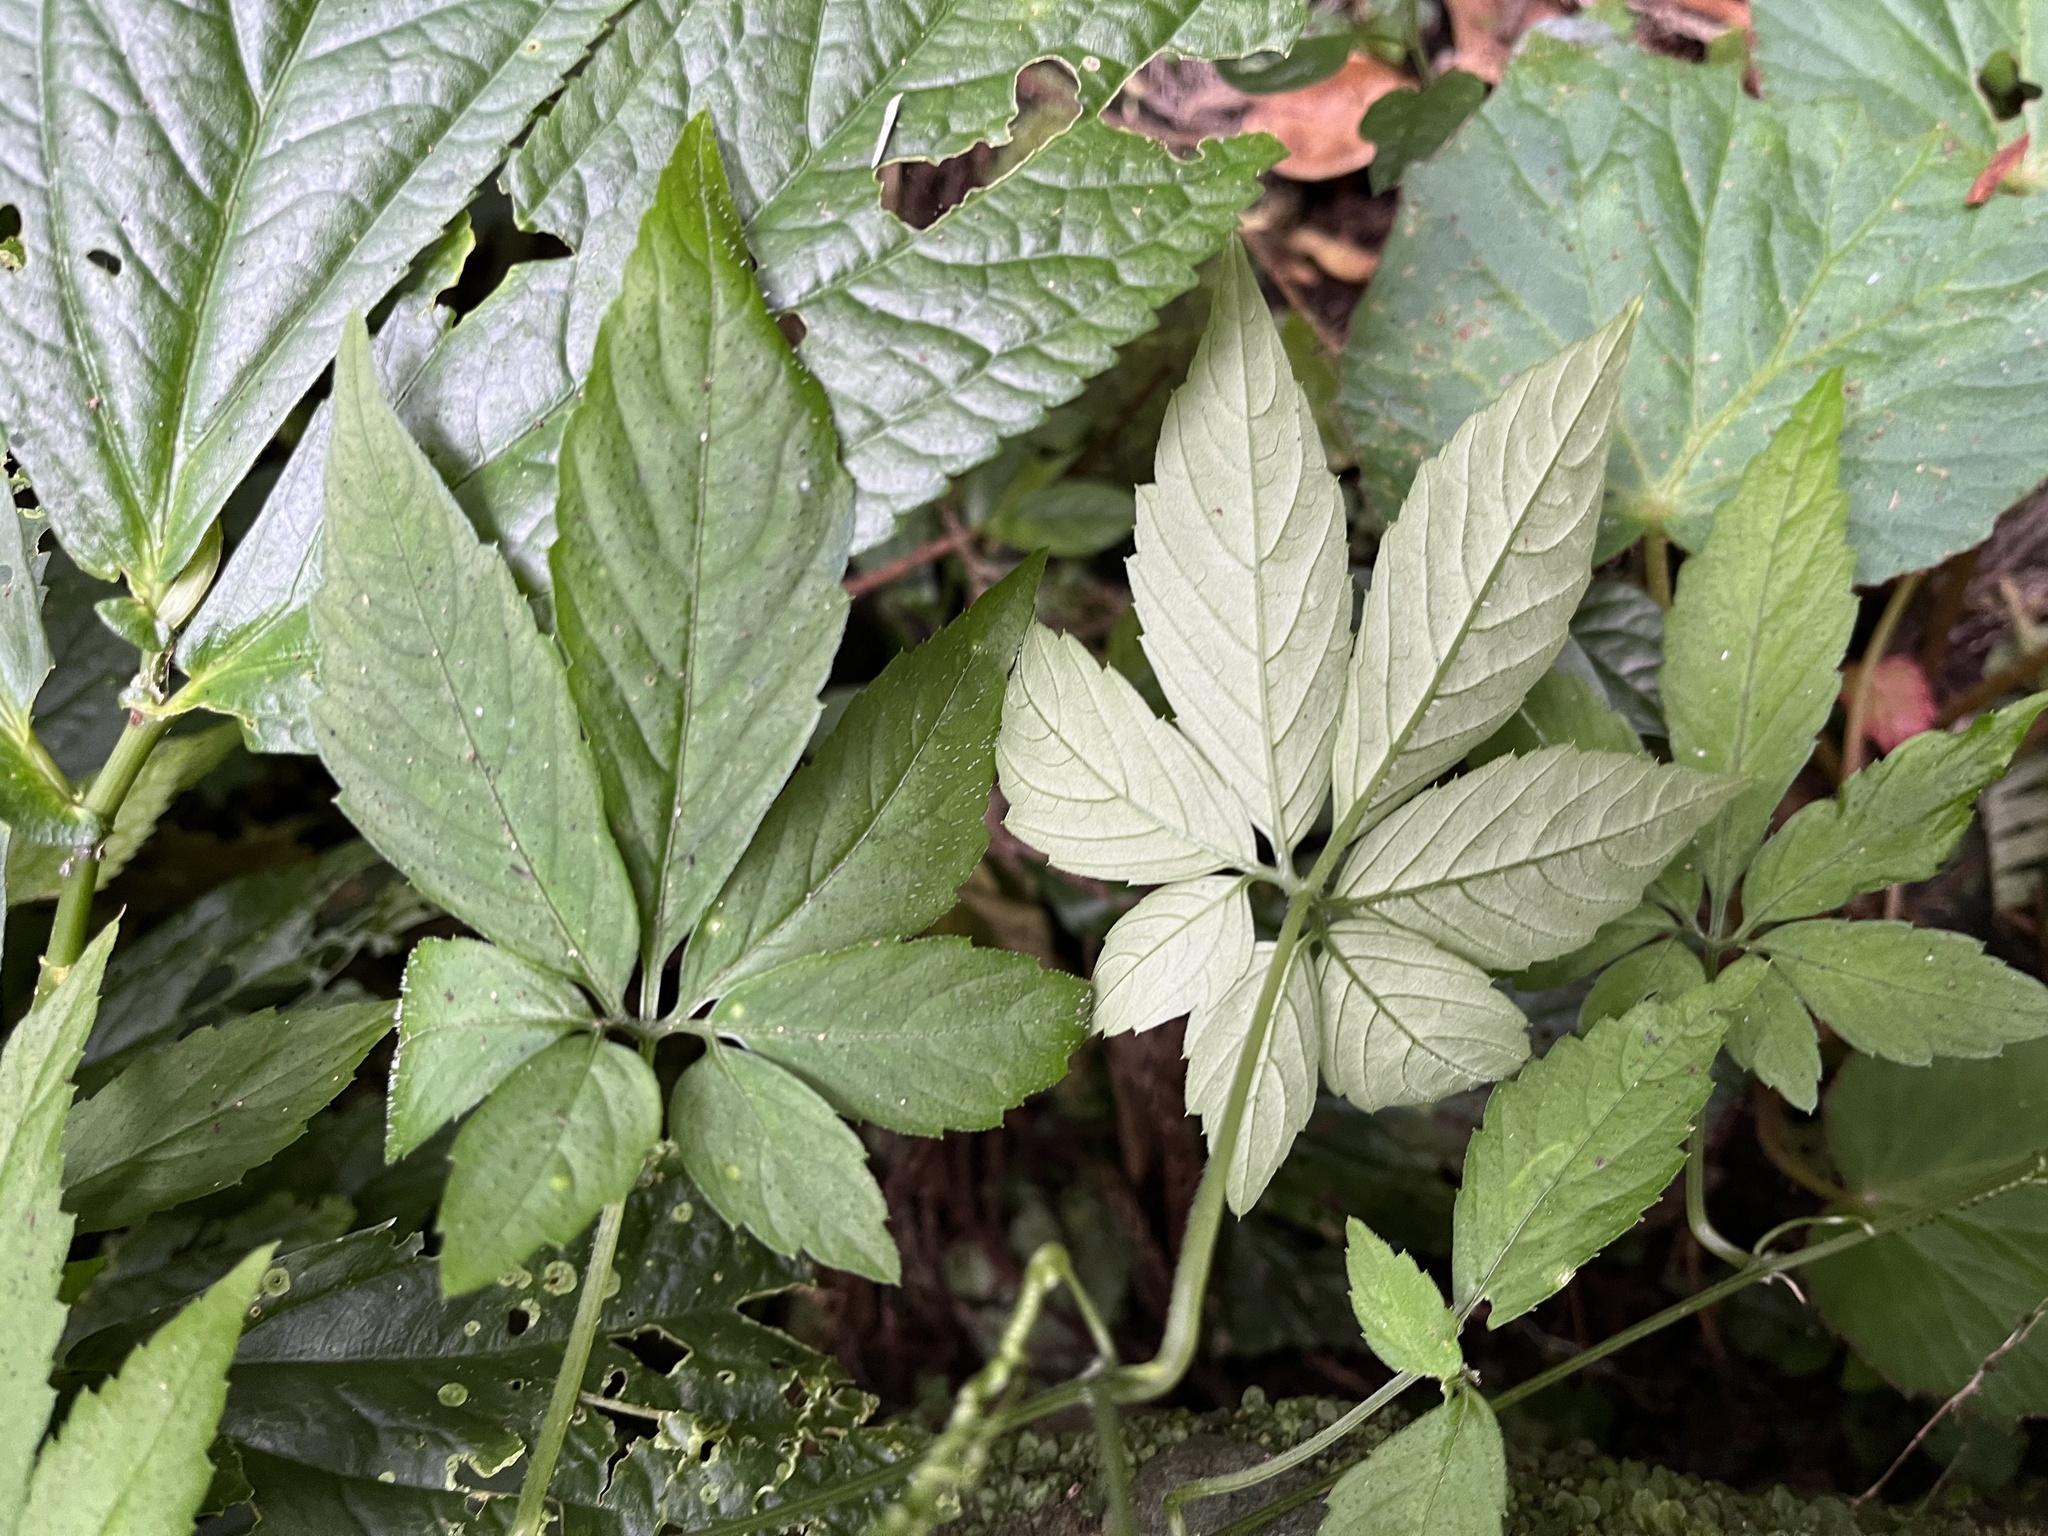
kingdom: Plantae
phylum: Tracheophyta
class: Magnoliopsida
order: Cucurbitales
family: Cucurbitaceae
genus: Gynostemma
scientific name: Gynostemma pentaphyllum
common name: Gynostemma
